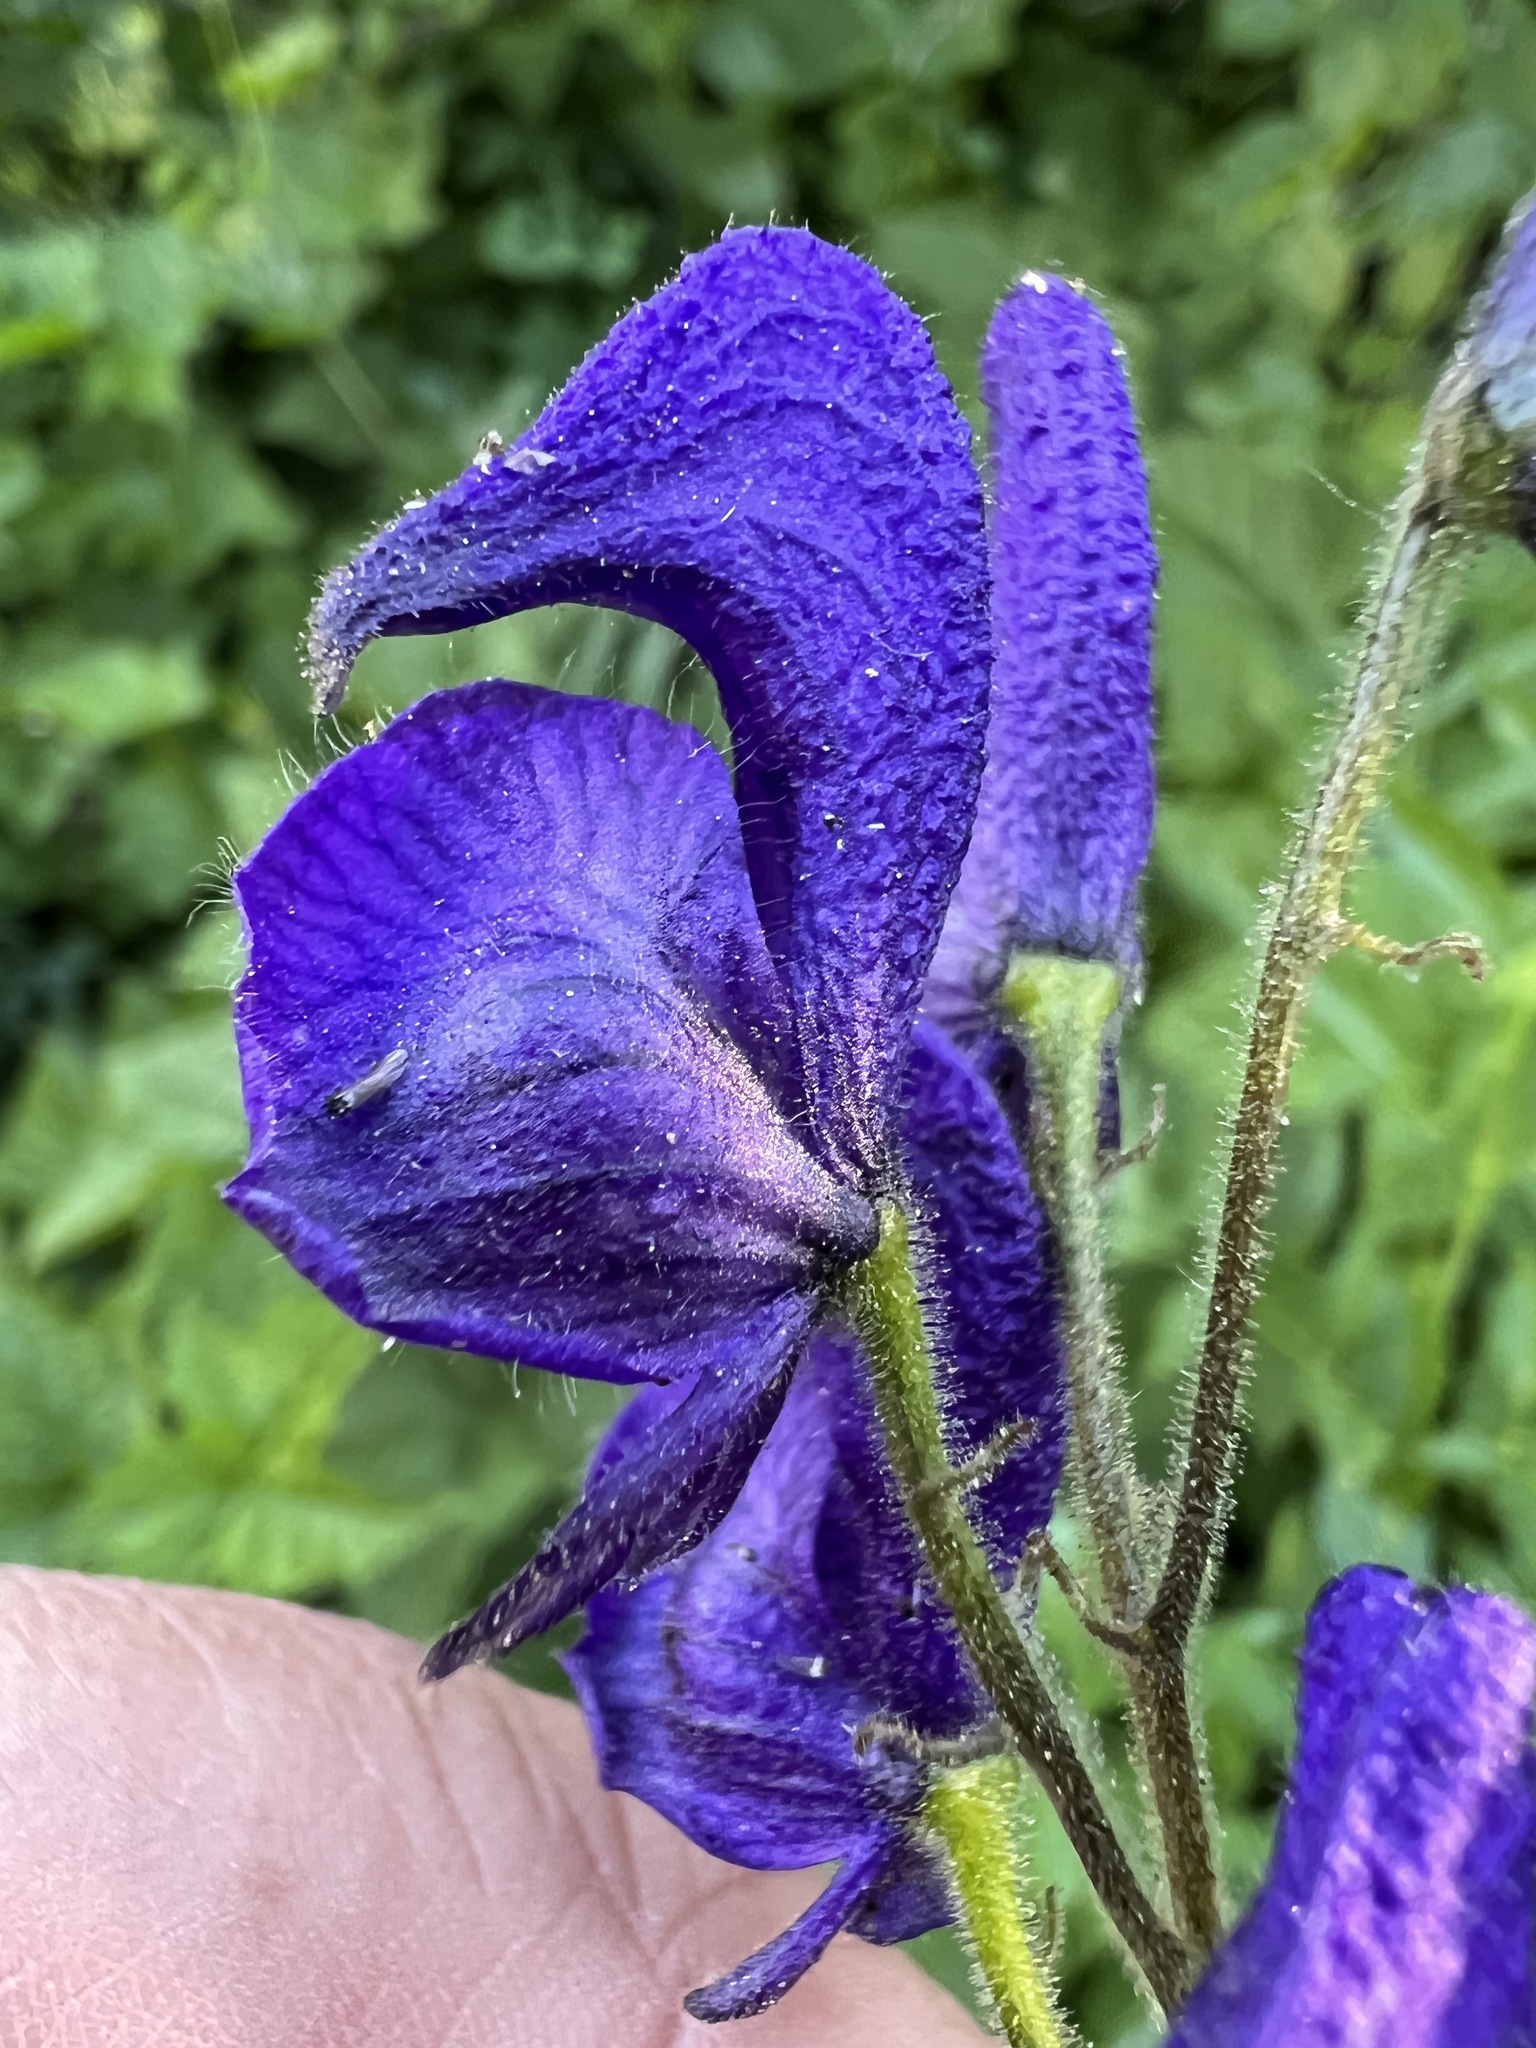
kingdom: Plantae
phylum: Tracheophyta
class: Magnoliopsida
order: Ranunculales
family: Ranunculaceae
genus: Aconitum
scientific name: Aconitum columbianum
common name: Columbia aconite
